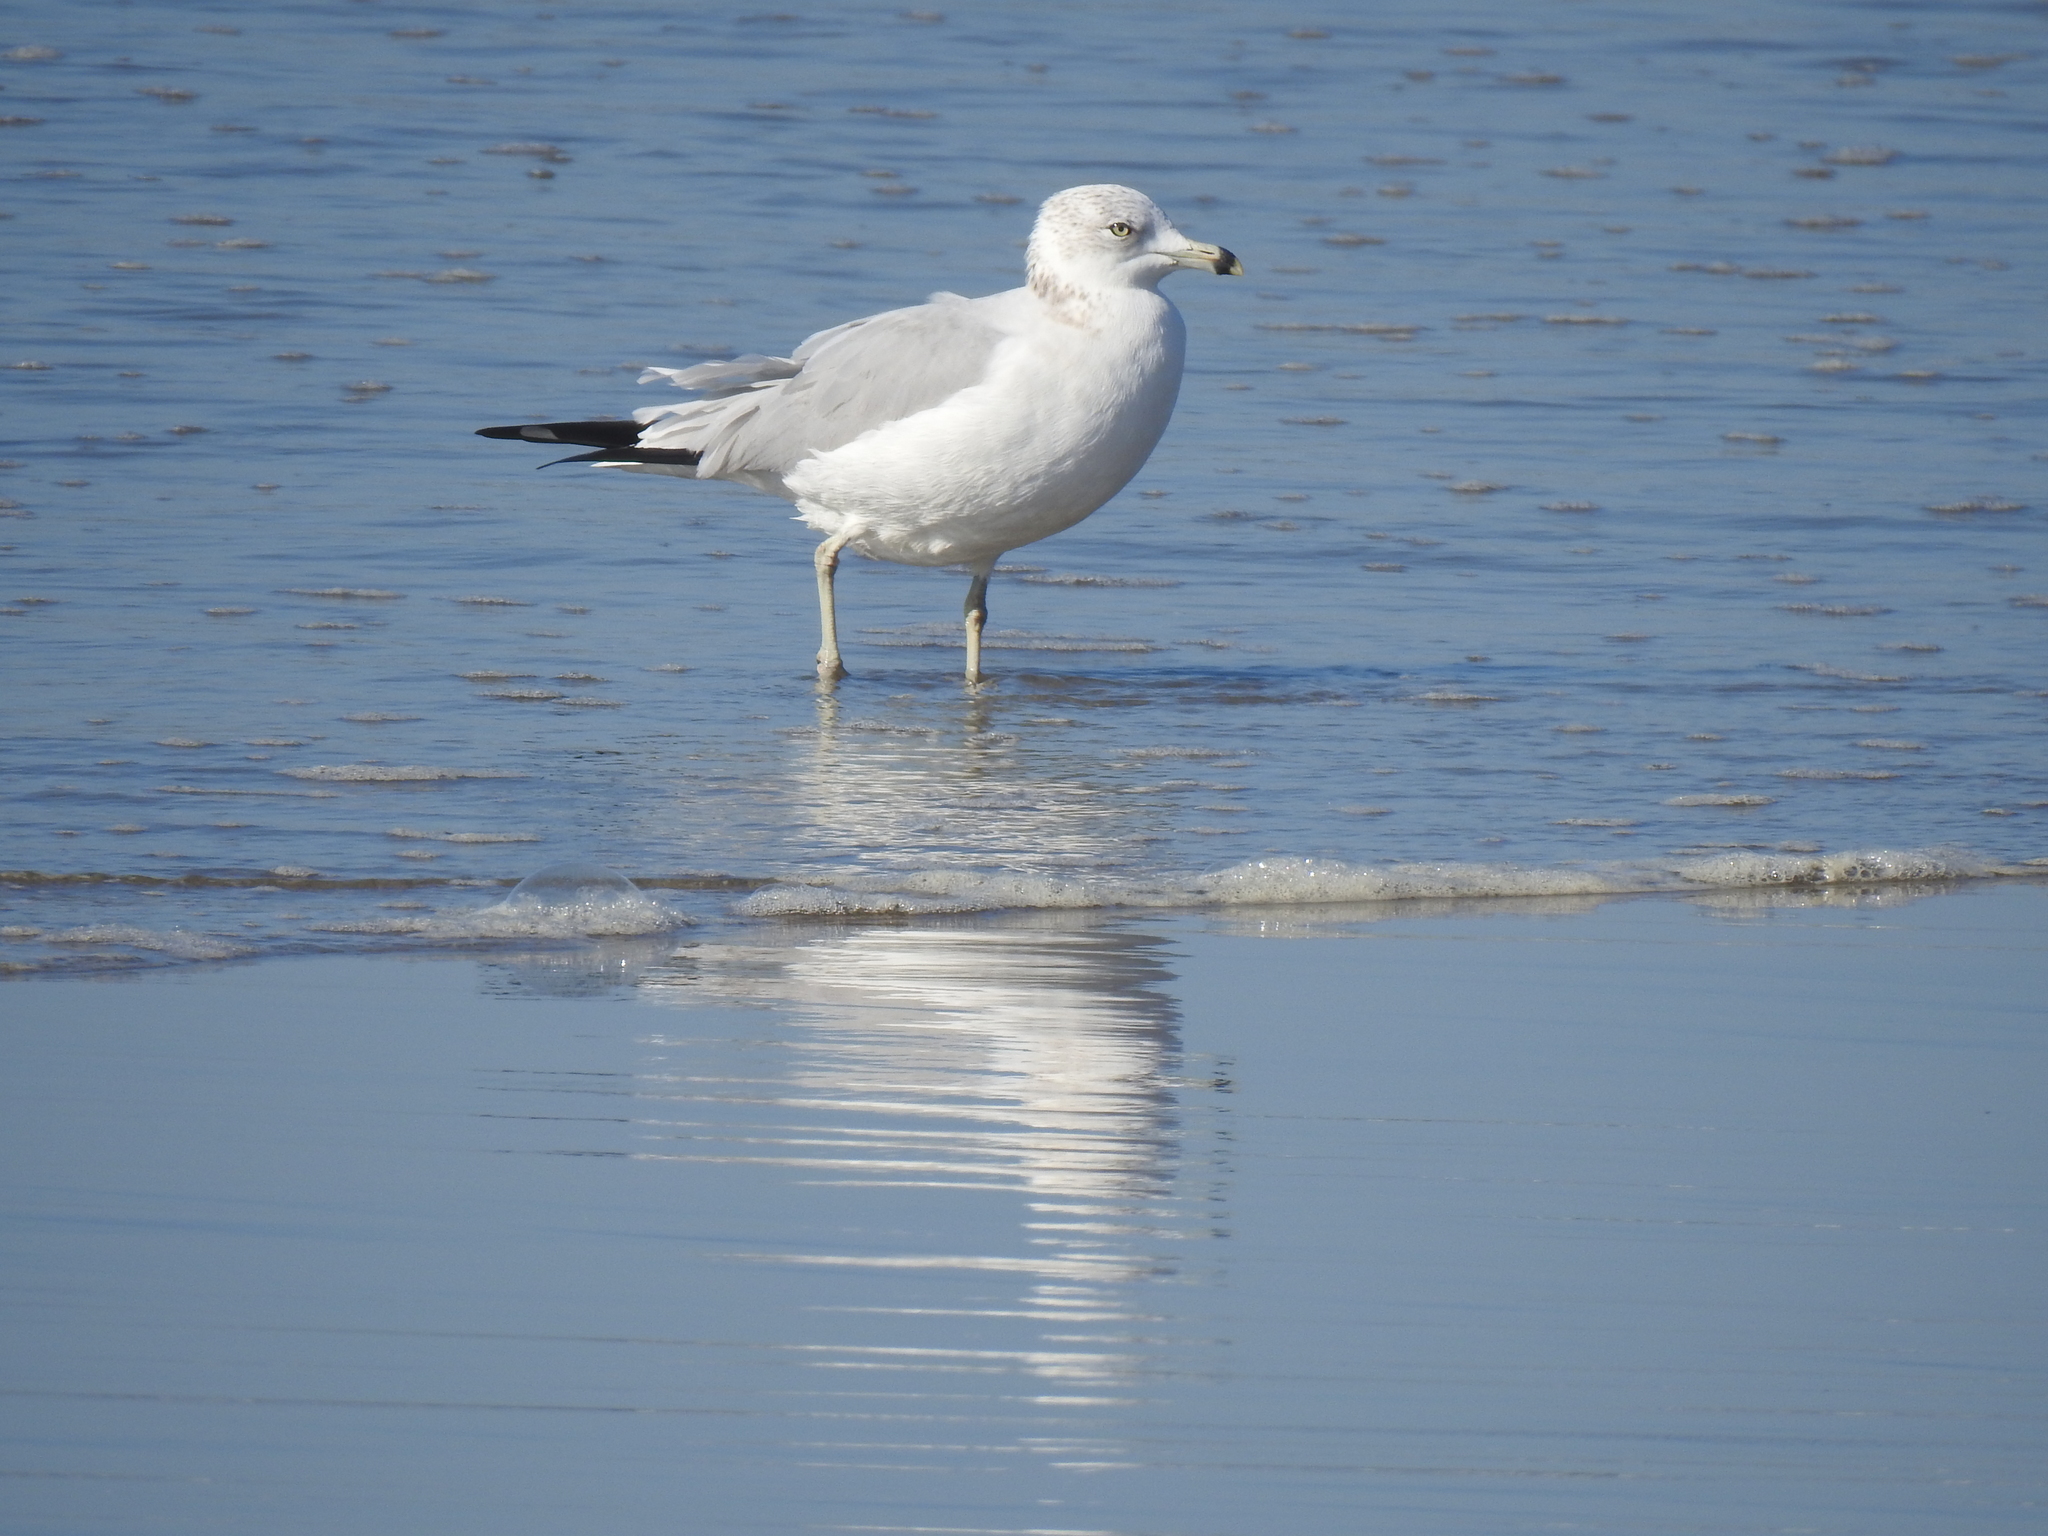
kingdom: Animalia
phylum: Chordata
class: Aves
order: Charadriiformes
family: Laridae
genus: Larus
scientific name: Larus delawarensis
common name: Ring-billed gull
